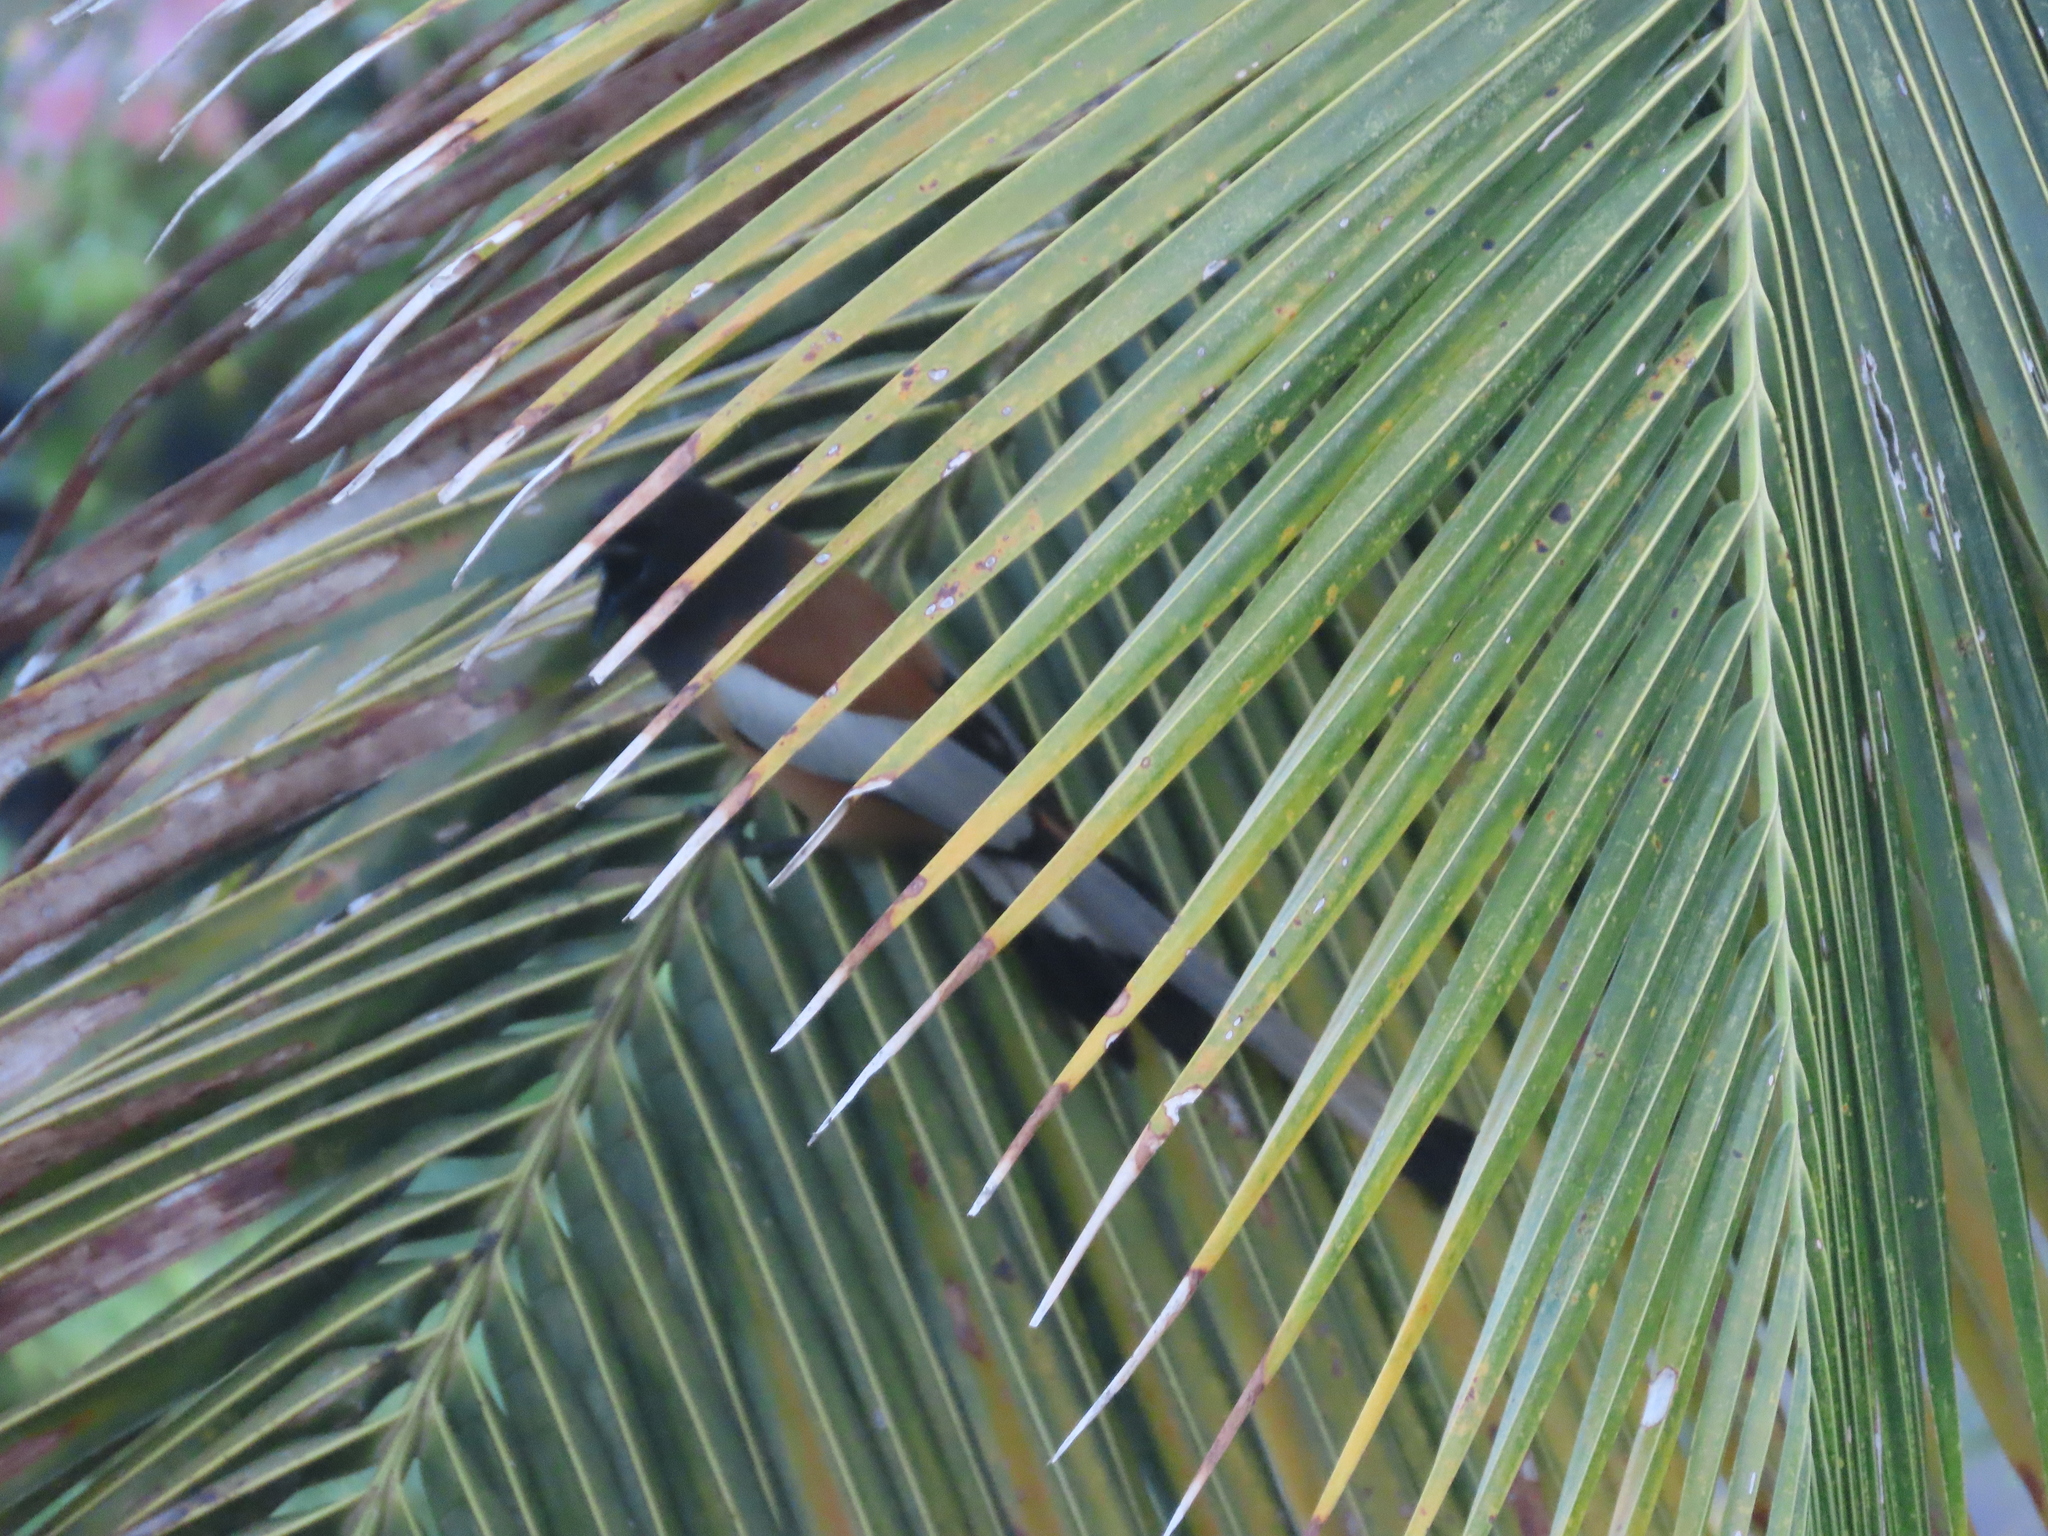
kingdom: Animalia
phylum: Chordata
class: Aves
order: Passeriformes
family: Corvidae
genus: Dendrocitta
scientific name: Dendrocitta vagabunda
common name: Rufous treepie
